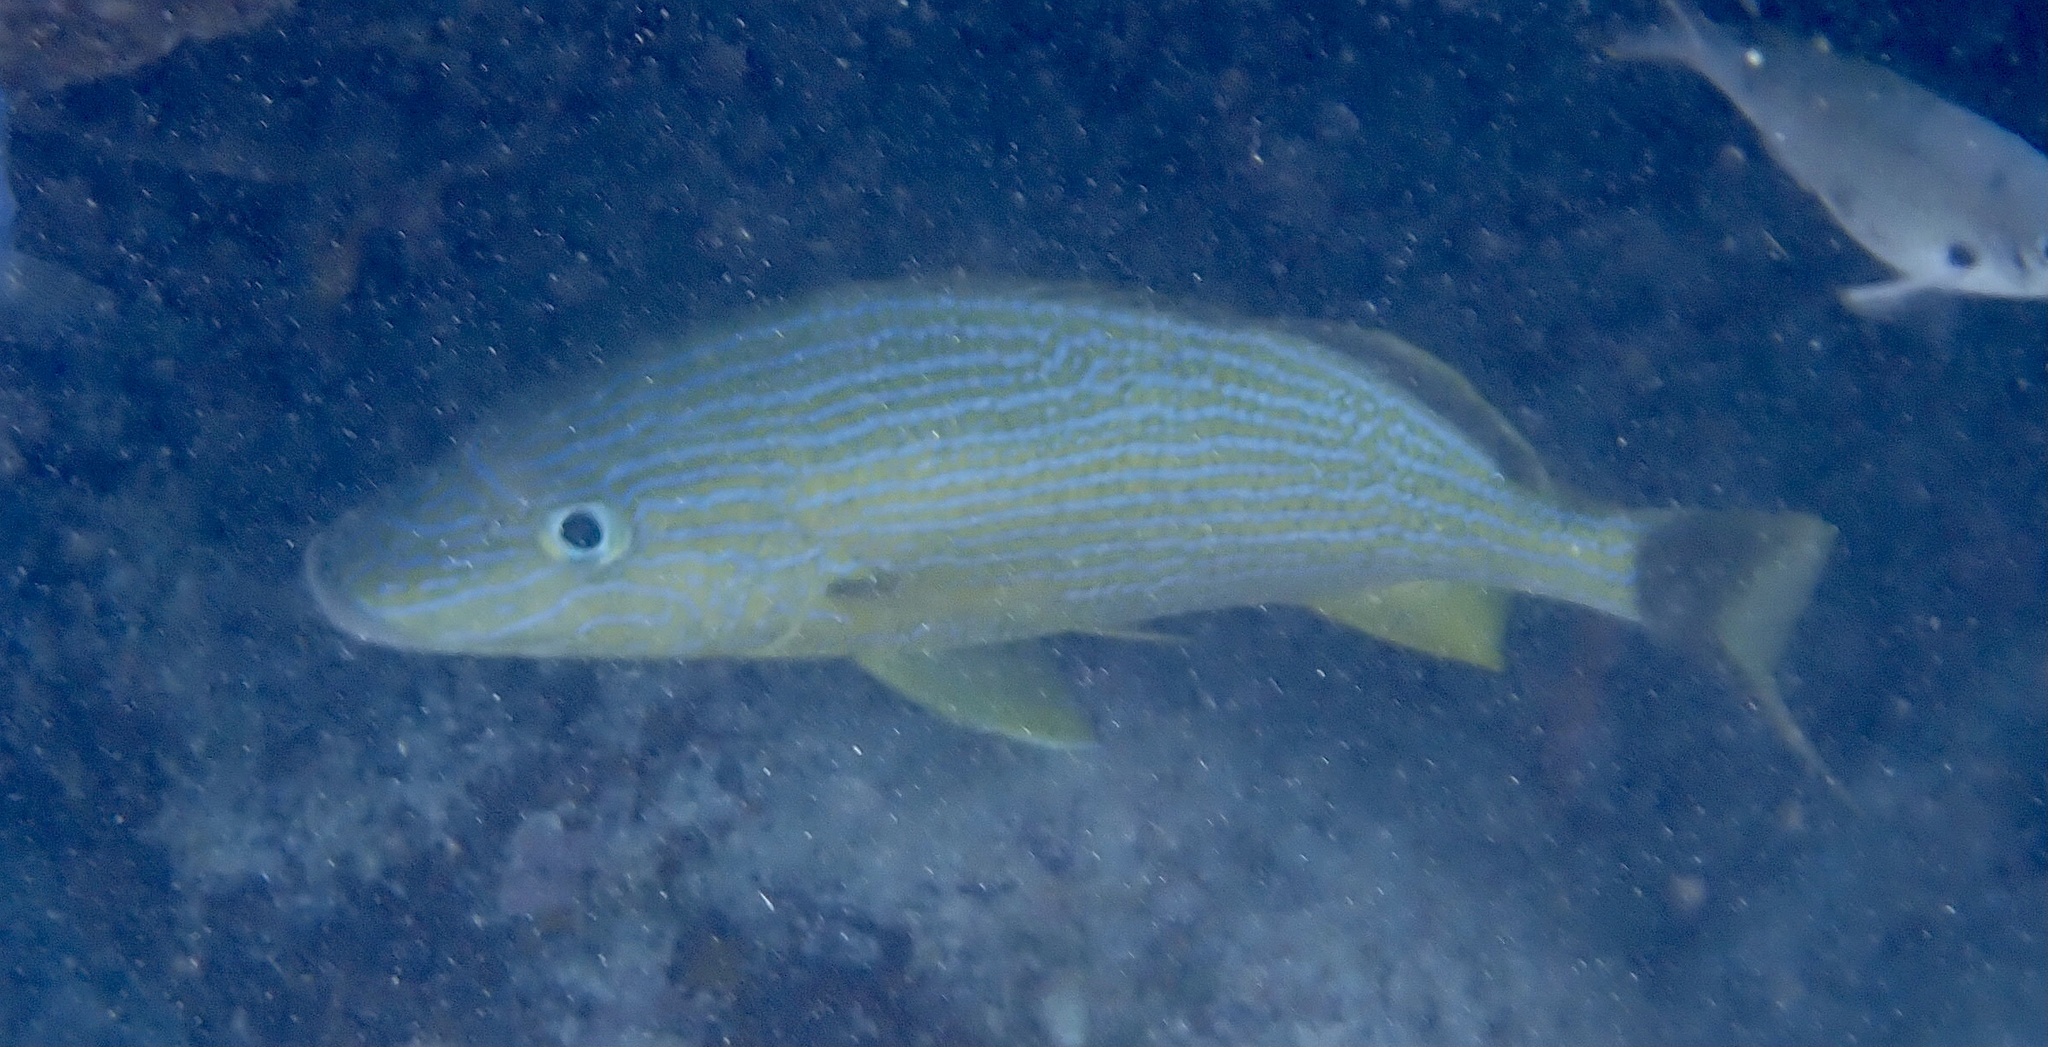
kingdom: Animalia
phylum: Chordata
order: Perciformes
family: Haemulidae
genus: Haemulon
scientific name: Haemulon sciurus
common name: Bluestriped grunt
